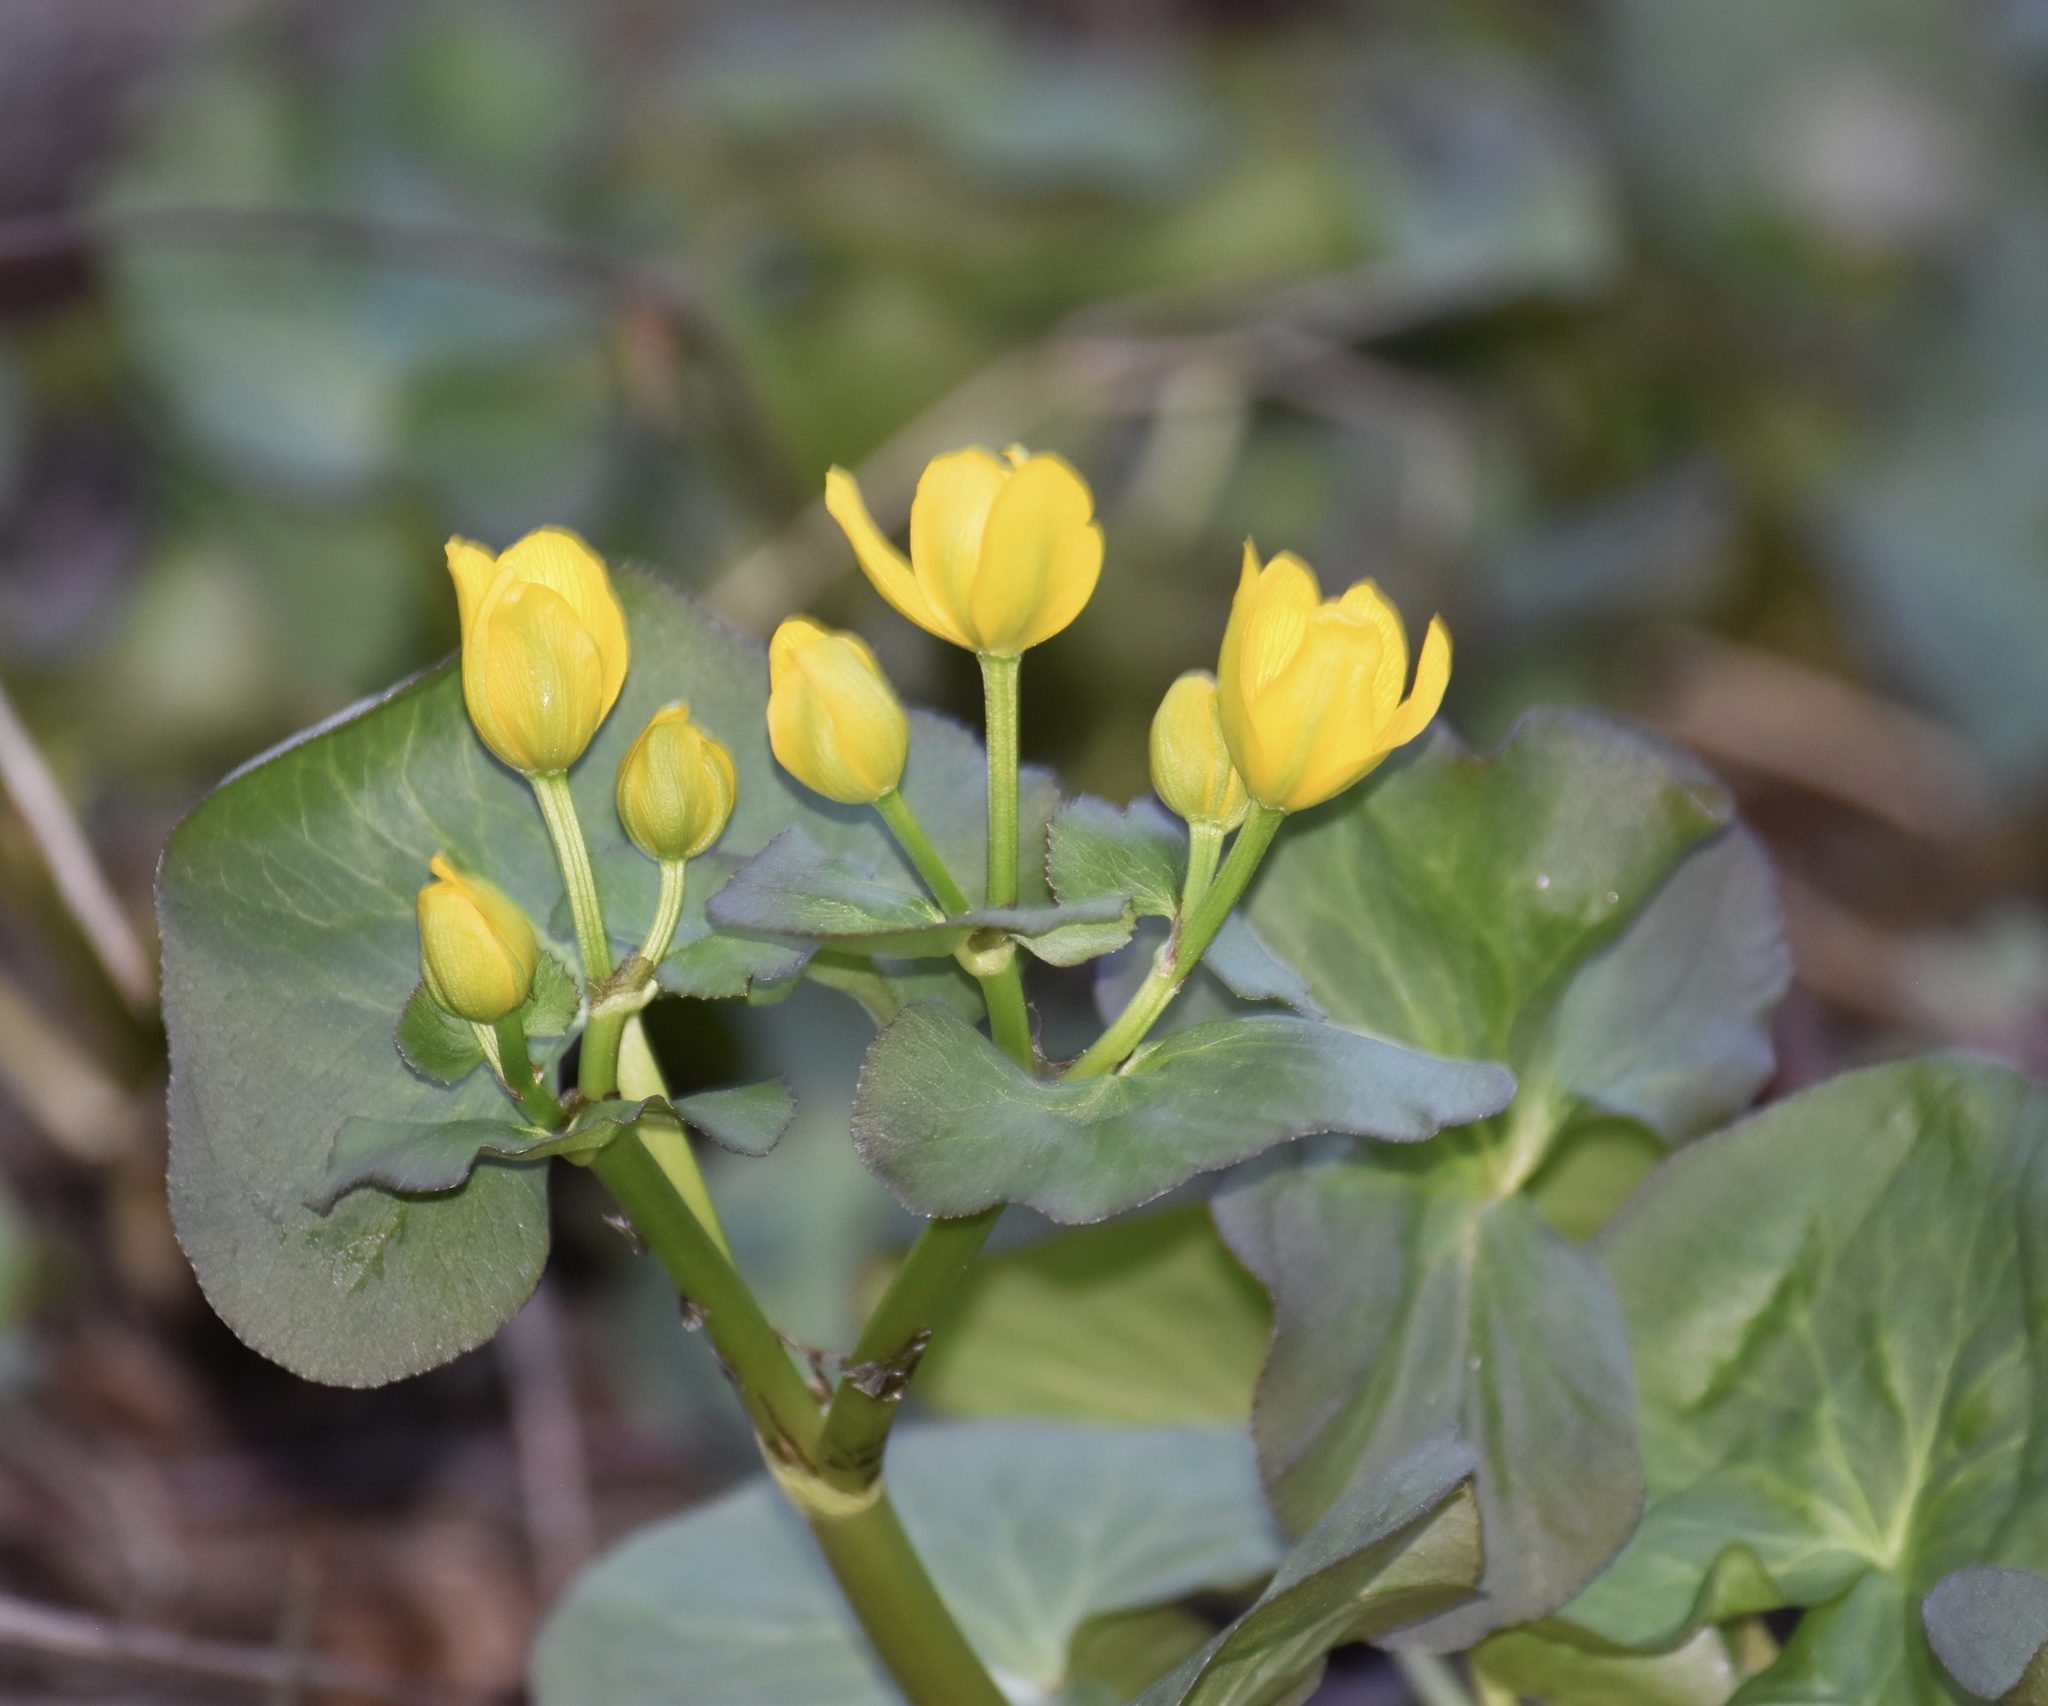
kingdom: Plantae
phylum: Tracheophyta
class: Magnoliopsida
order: Ranunculales
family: Ranunculaceae
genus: Caltha
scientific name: Caltha palustris
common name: Marsh marigold
